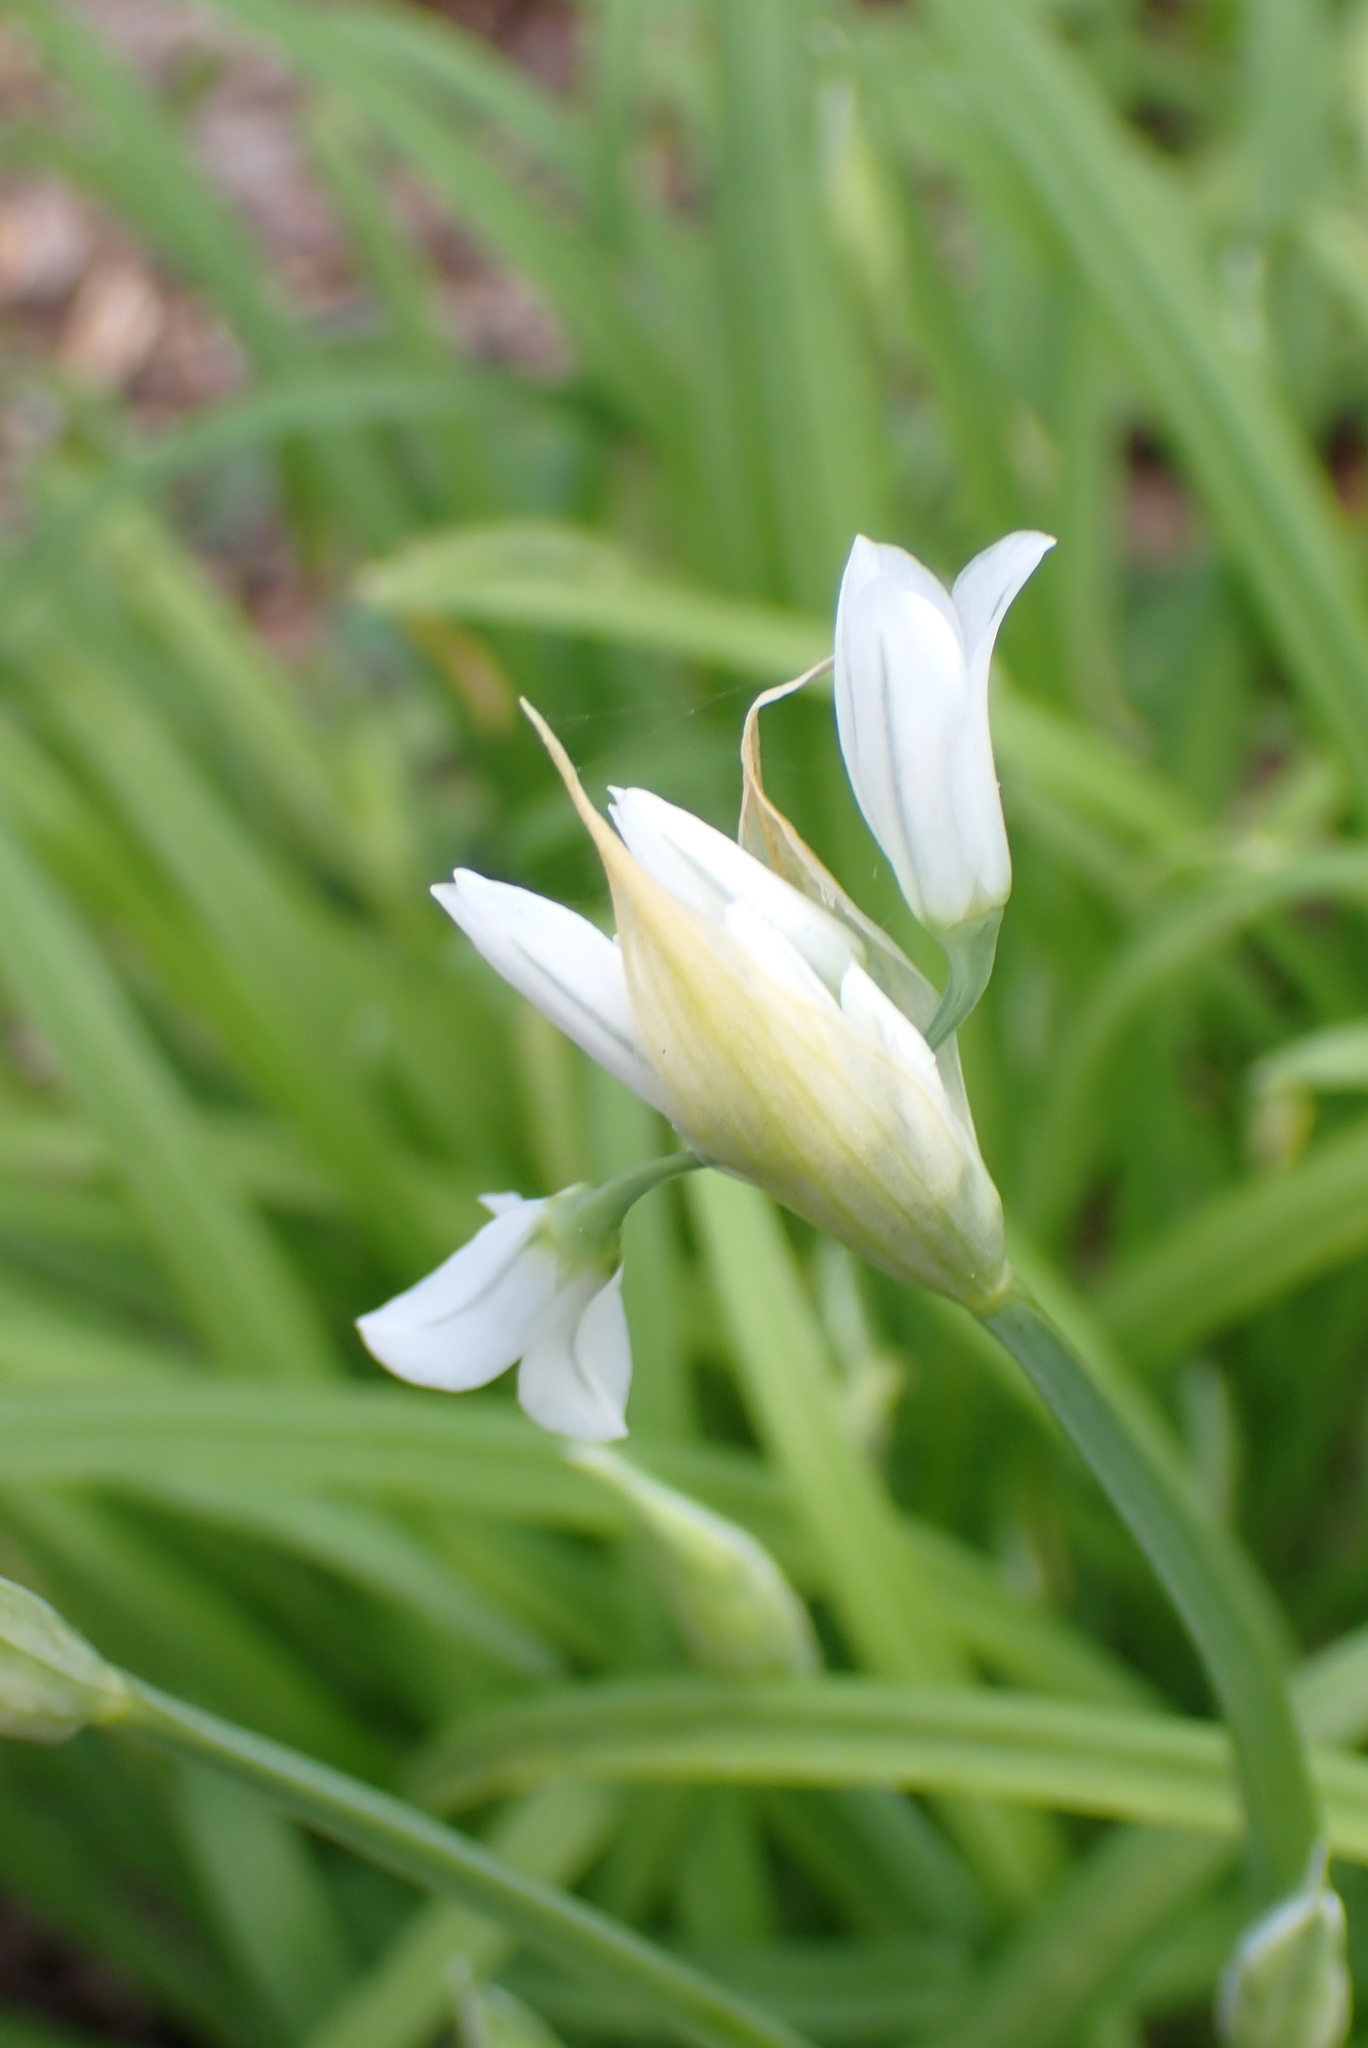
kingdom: Plantae
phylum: Tracheophyta
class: Liliopsida
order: Asparagales
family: Amaryllidaceae
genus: Allium
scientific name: Allium triquetrum
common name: Three-cornered garlic
